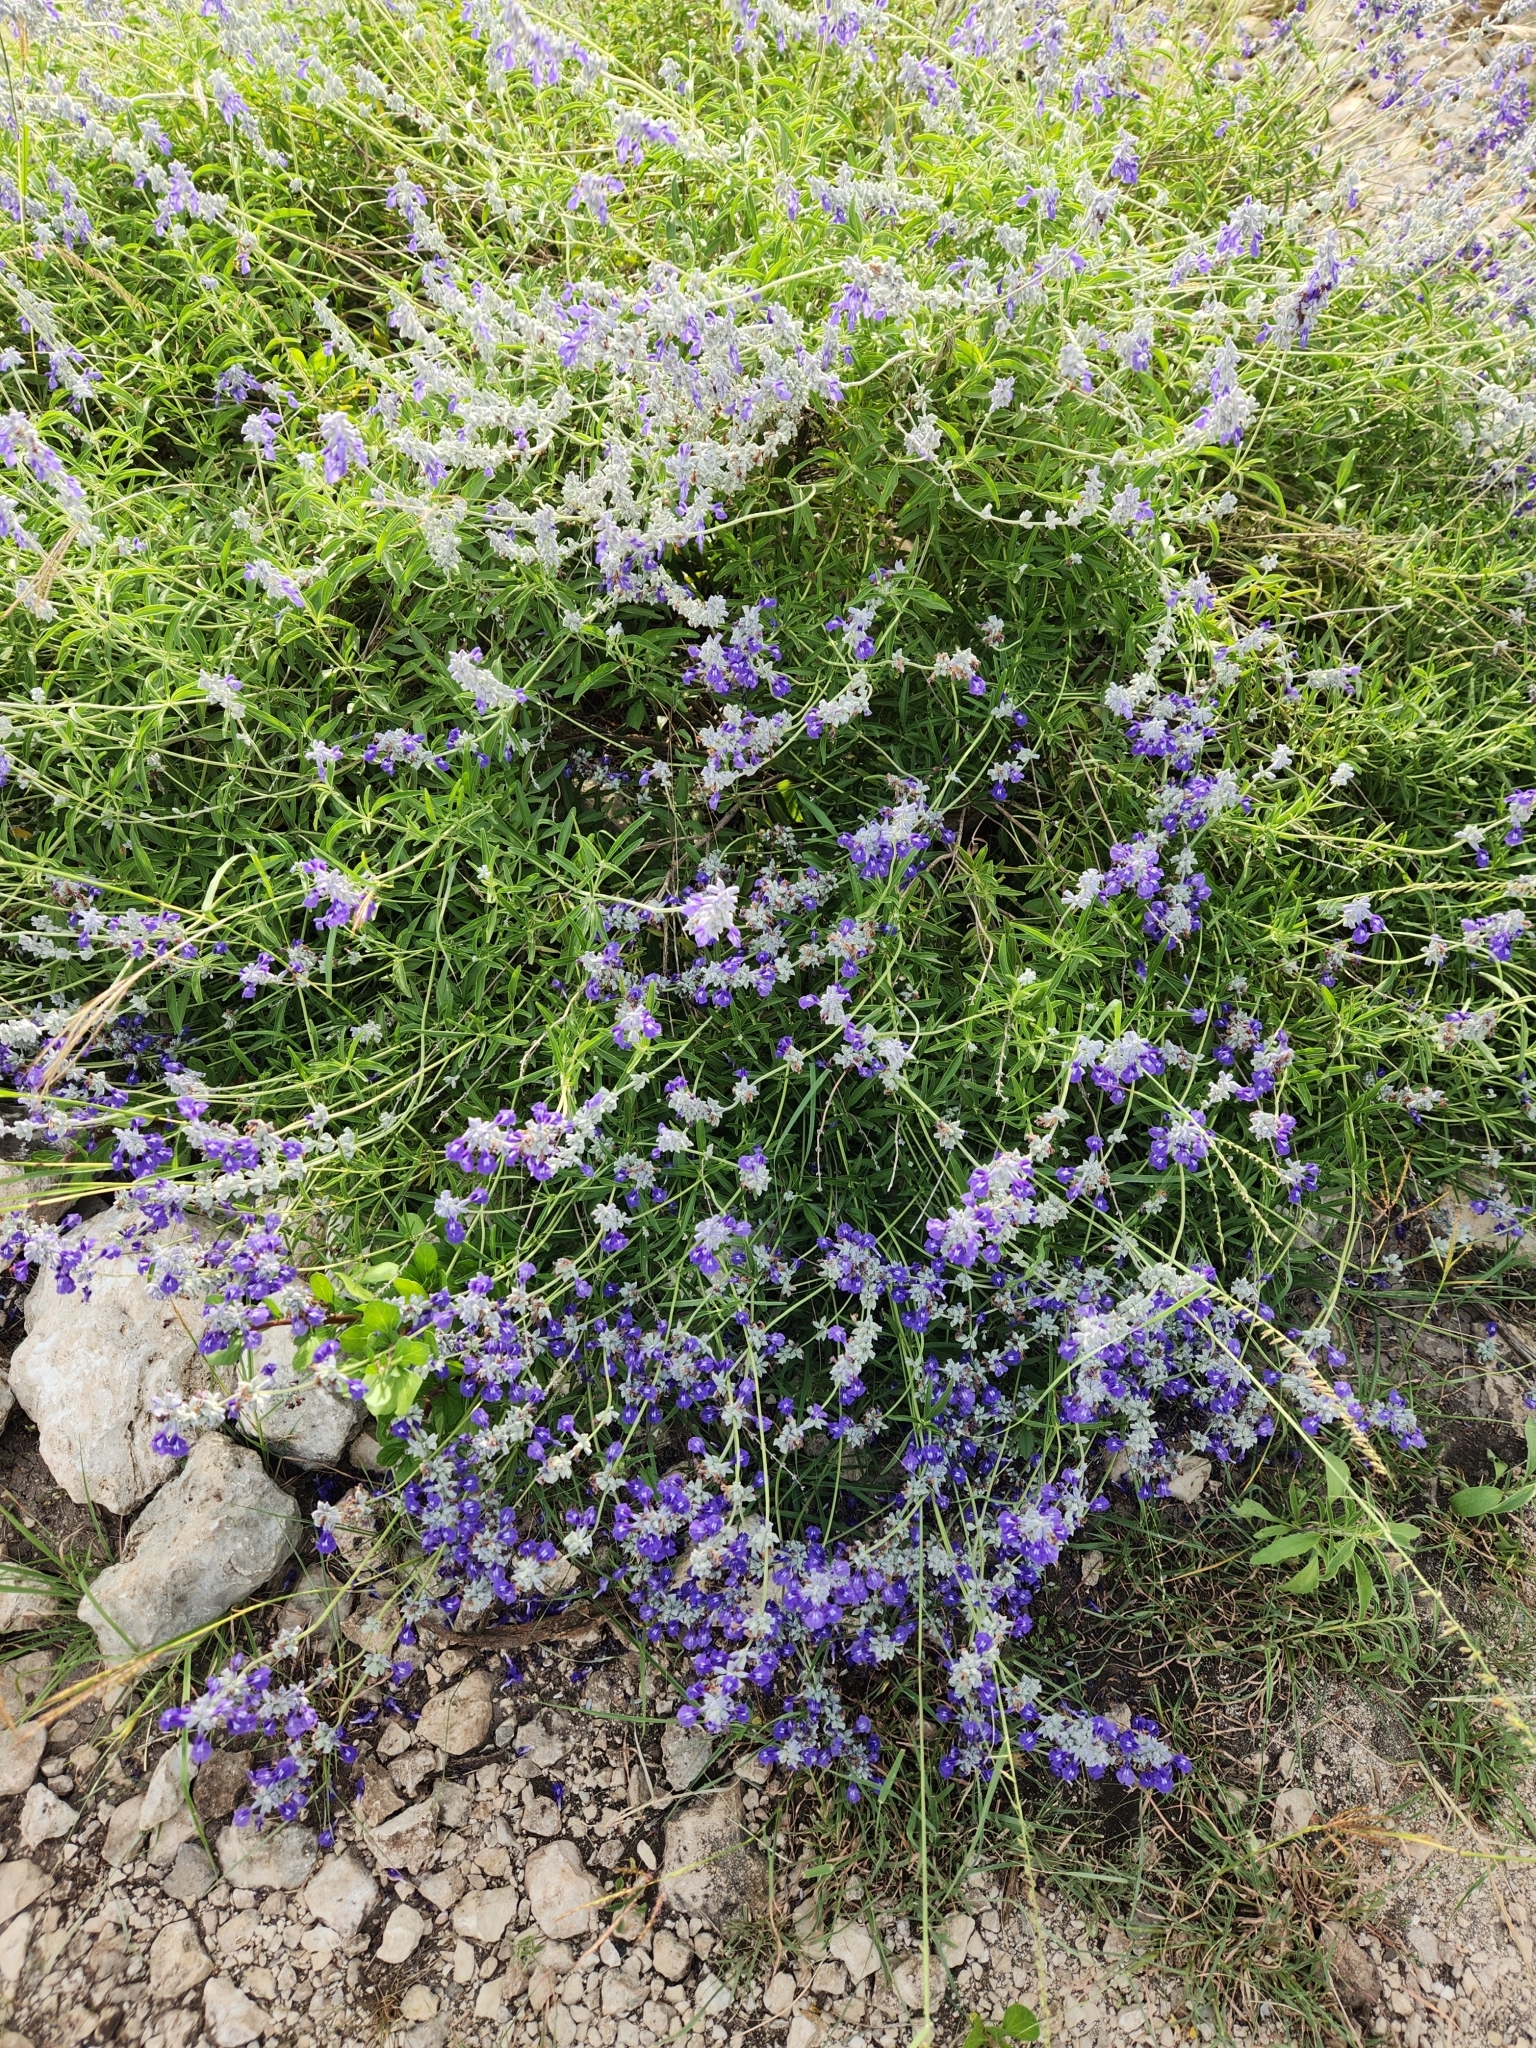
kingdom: Plantae
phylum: Tracheophyta
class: Magnoliopsida
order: Lamiales
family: Lamiaceae
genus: Salvia
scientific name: Salvia farinacea
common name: Mealy sage
